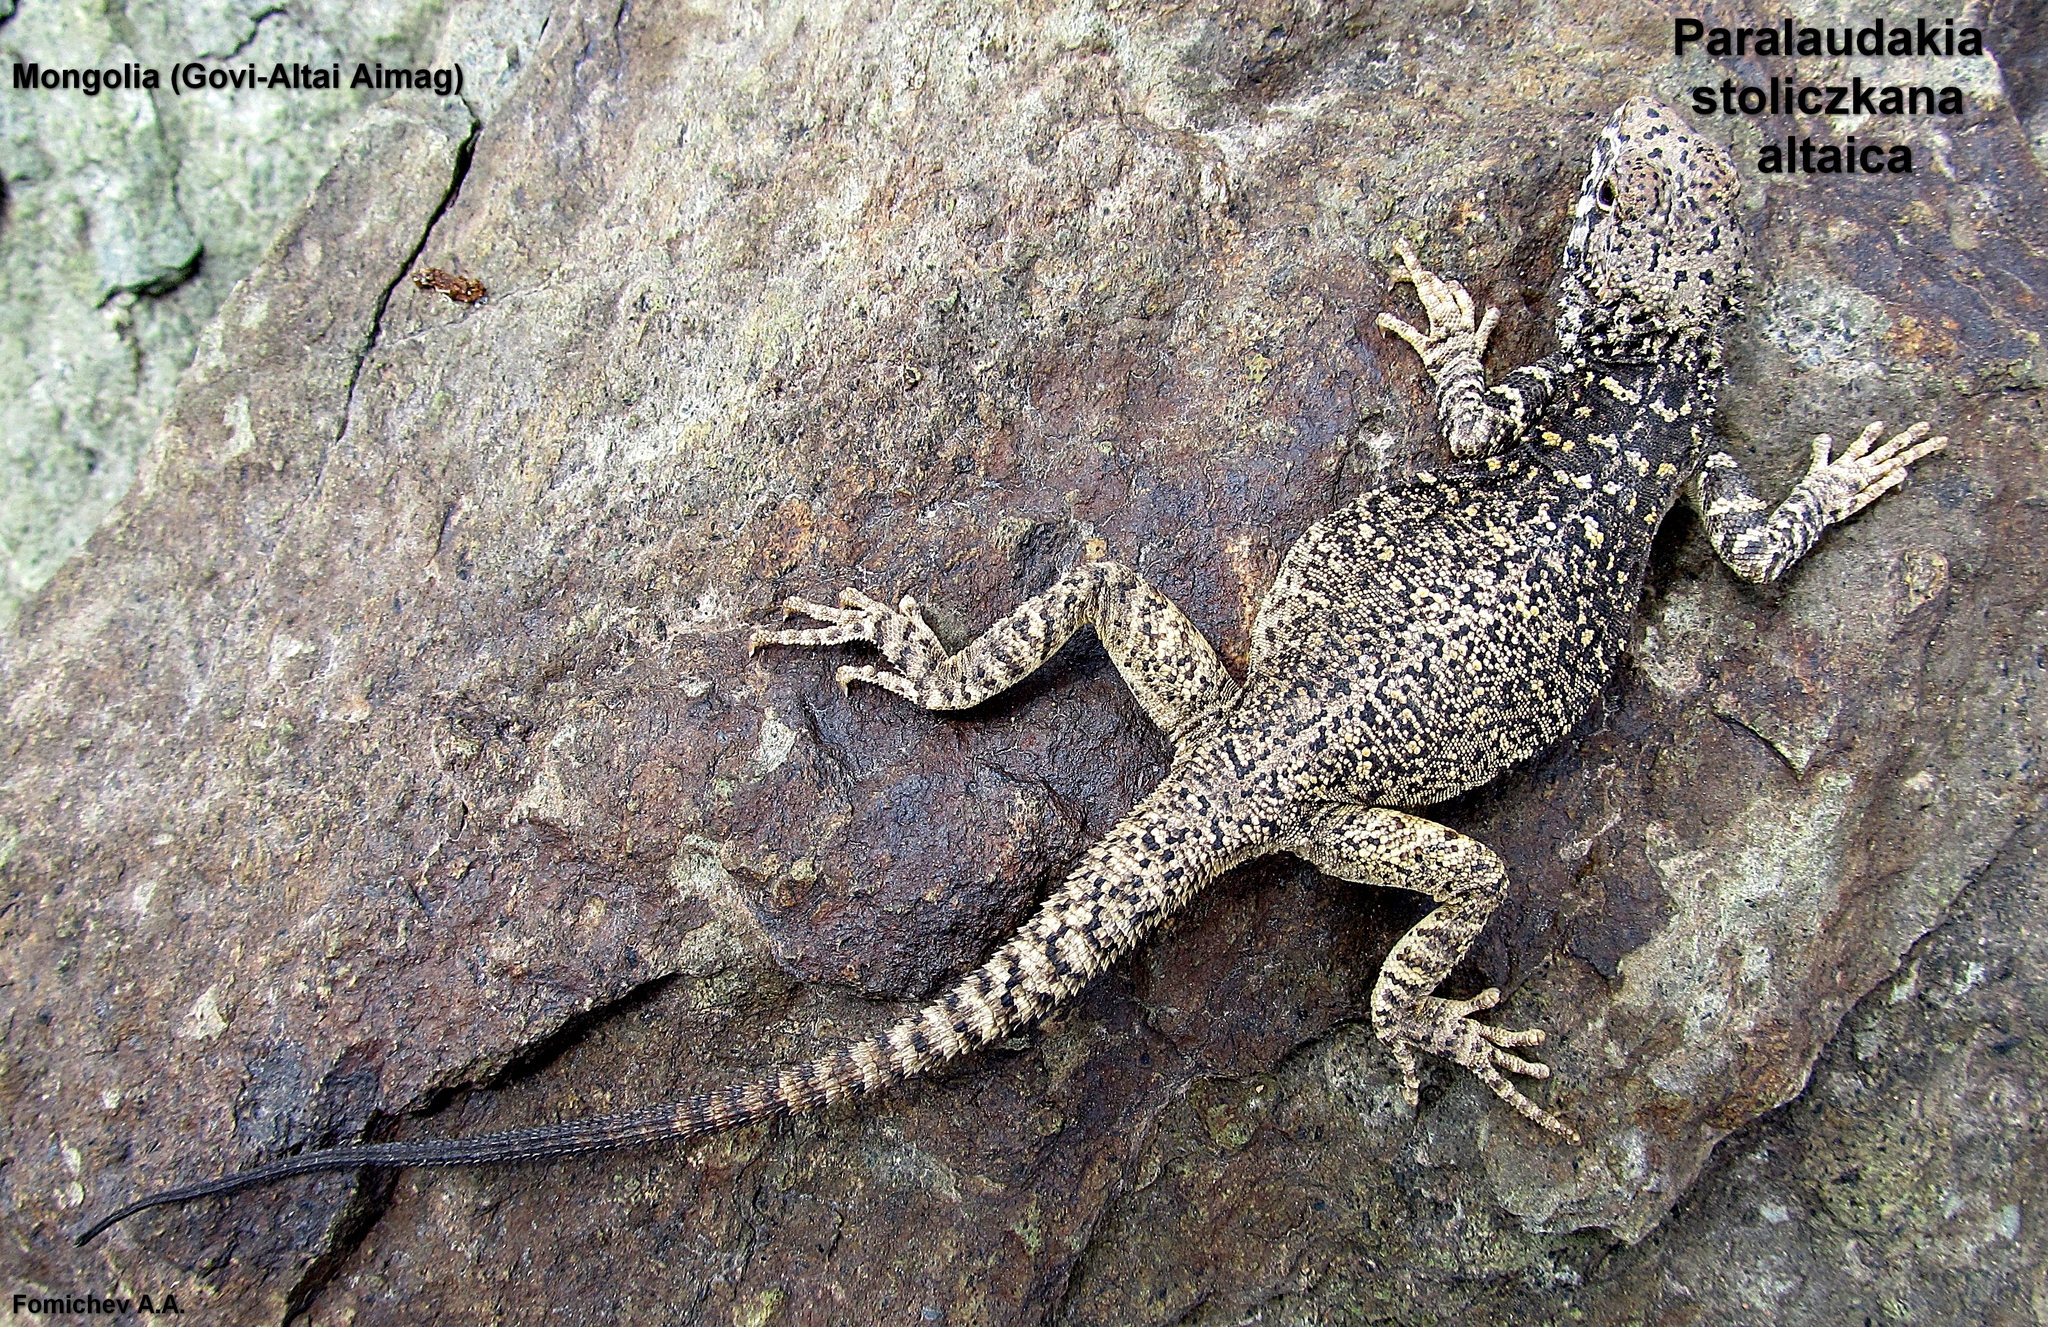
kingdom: Animalia
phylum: Chordata
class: Squamata
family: Agamidae
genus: Paralaudakia
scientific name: Paralaudakia stoliczkana
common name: Mongolia rock agama
